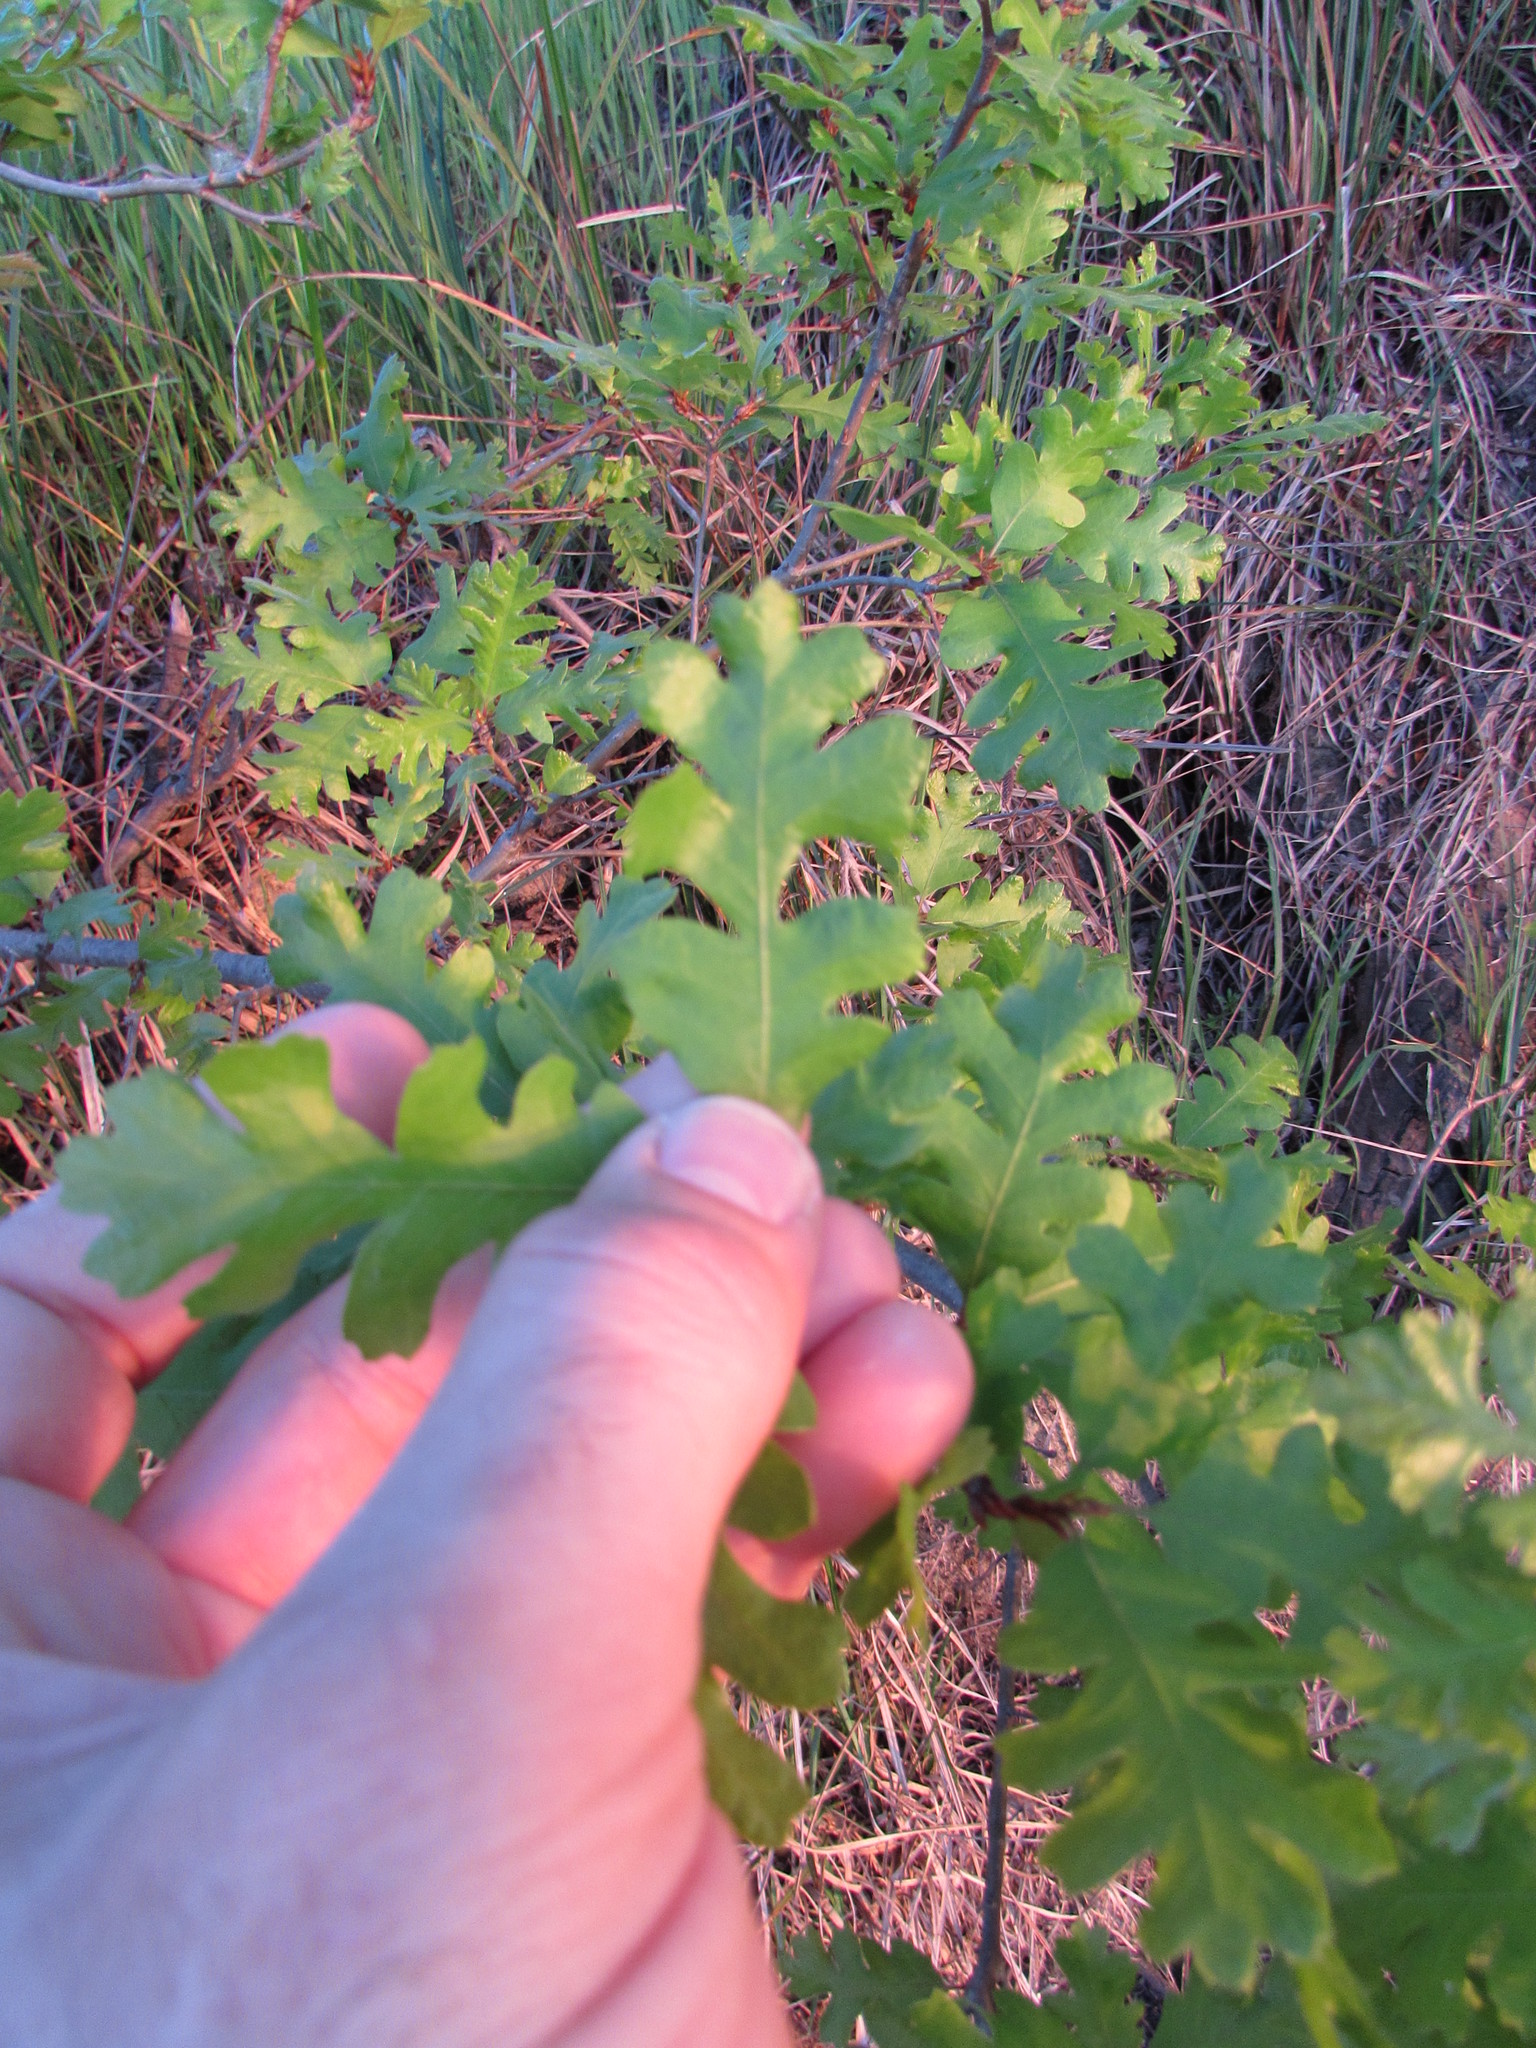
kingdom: Plantae
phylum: Tracheophyta
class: Magnoliopsida
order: Fagales
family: Fagaceae
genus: Quercus
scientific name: Quercus lobata
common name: Valley oak
